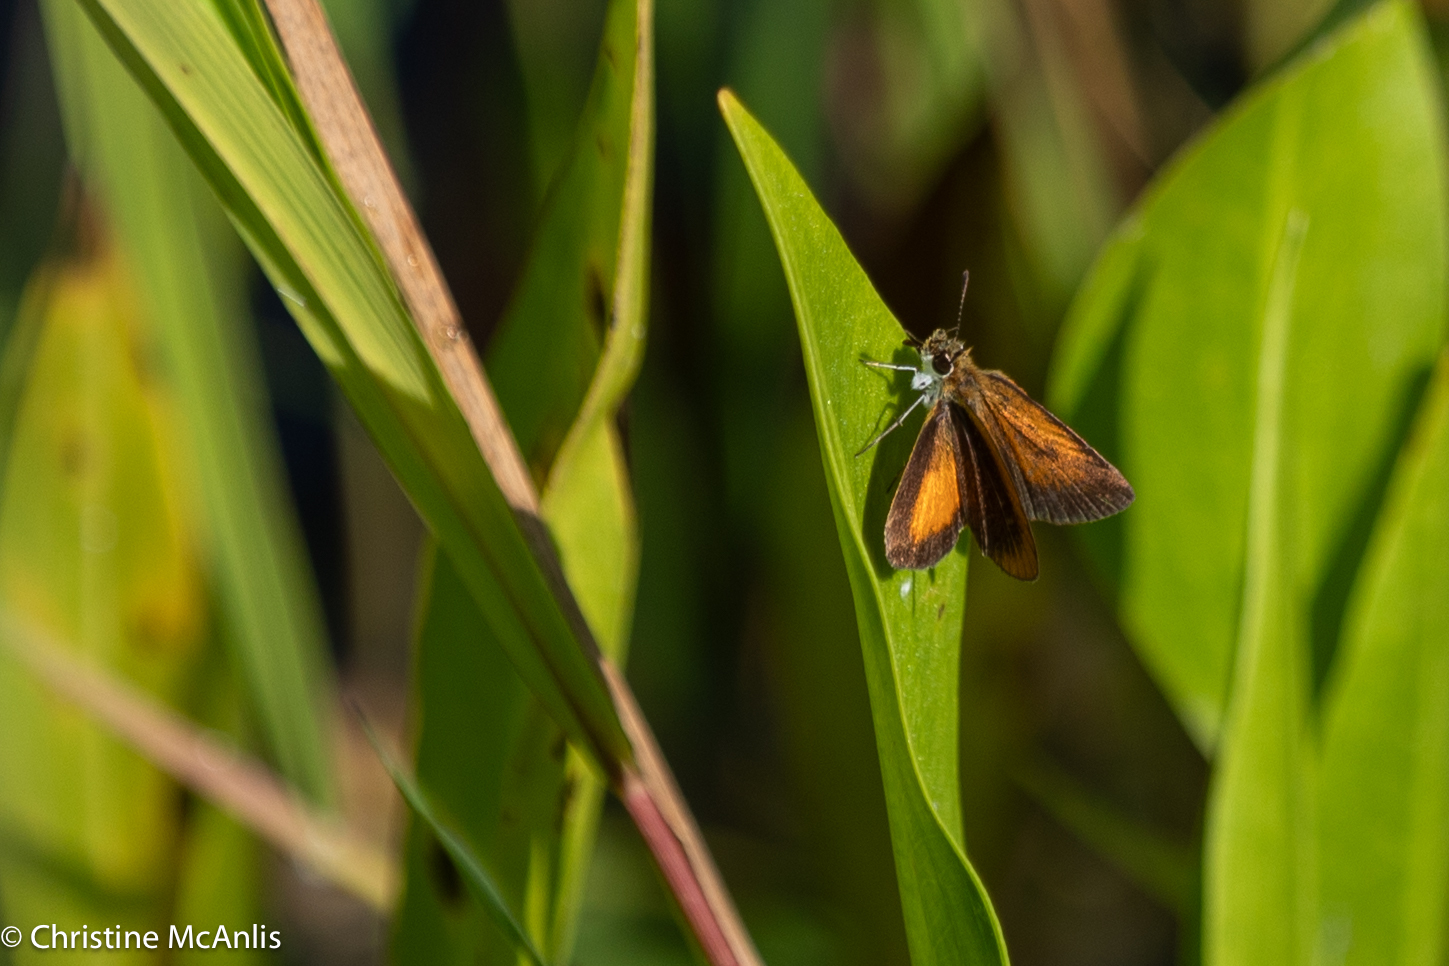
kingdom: Animalia
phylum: Arthropoda
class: Insecta
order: Lepidoptera
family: Hesperiidae
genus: Ancyloxypha
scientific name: Ancyloxypha numitor
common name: Least skipper
